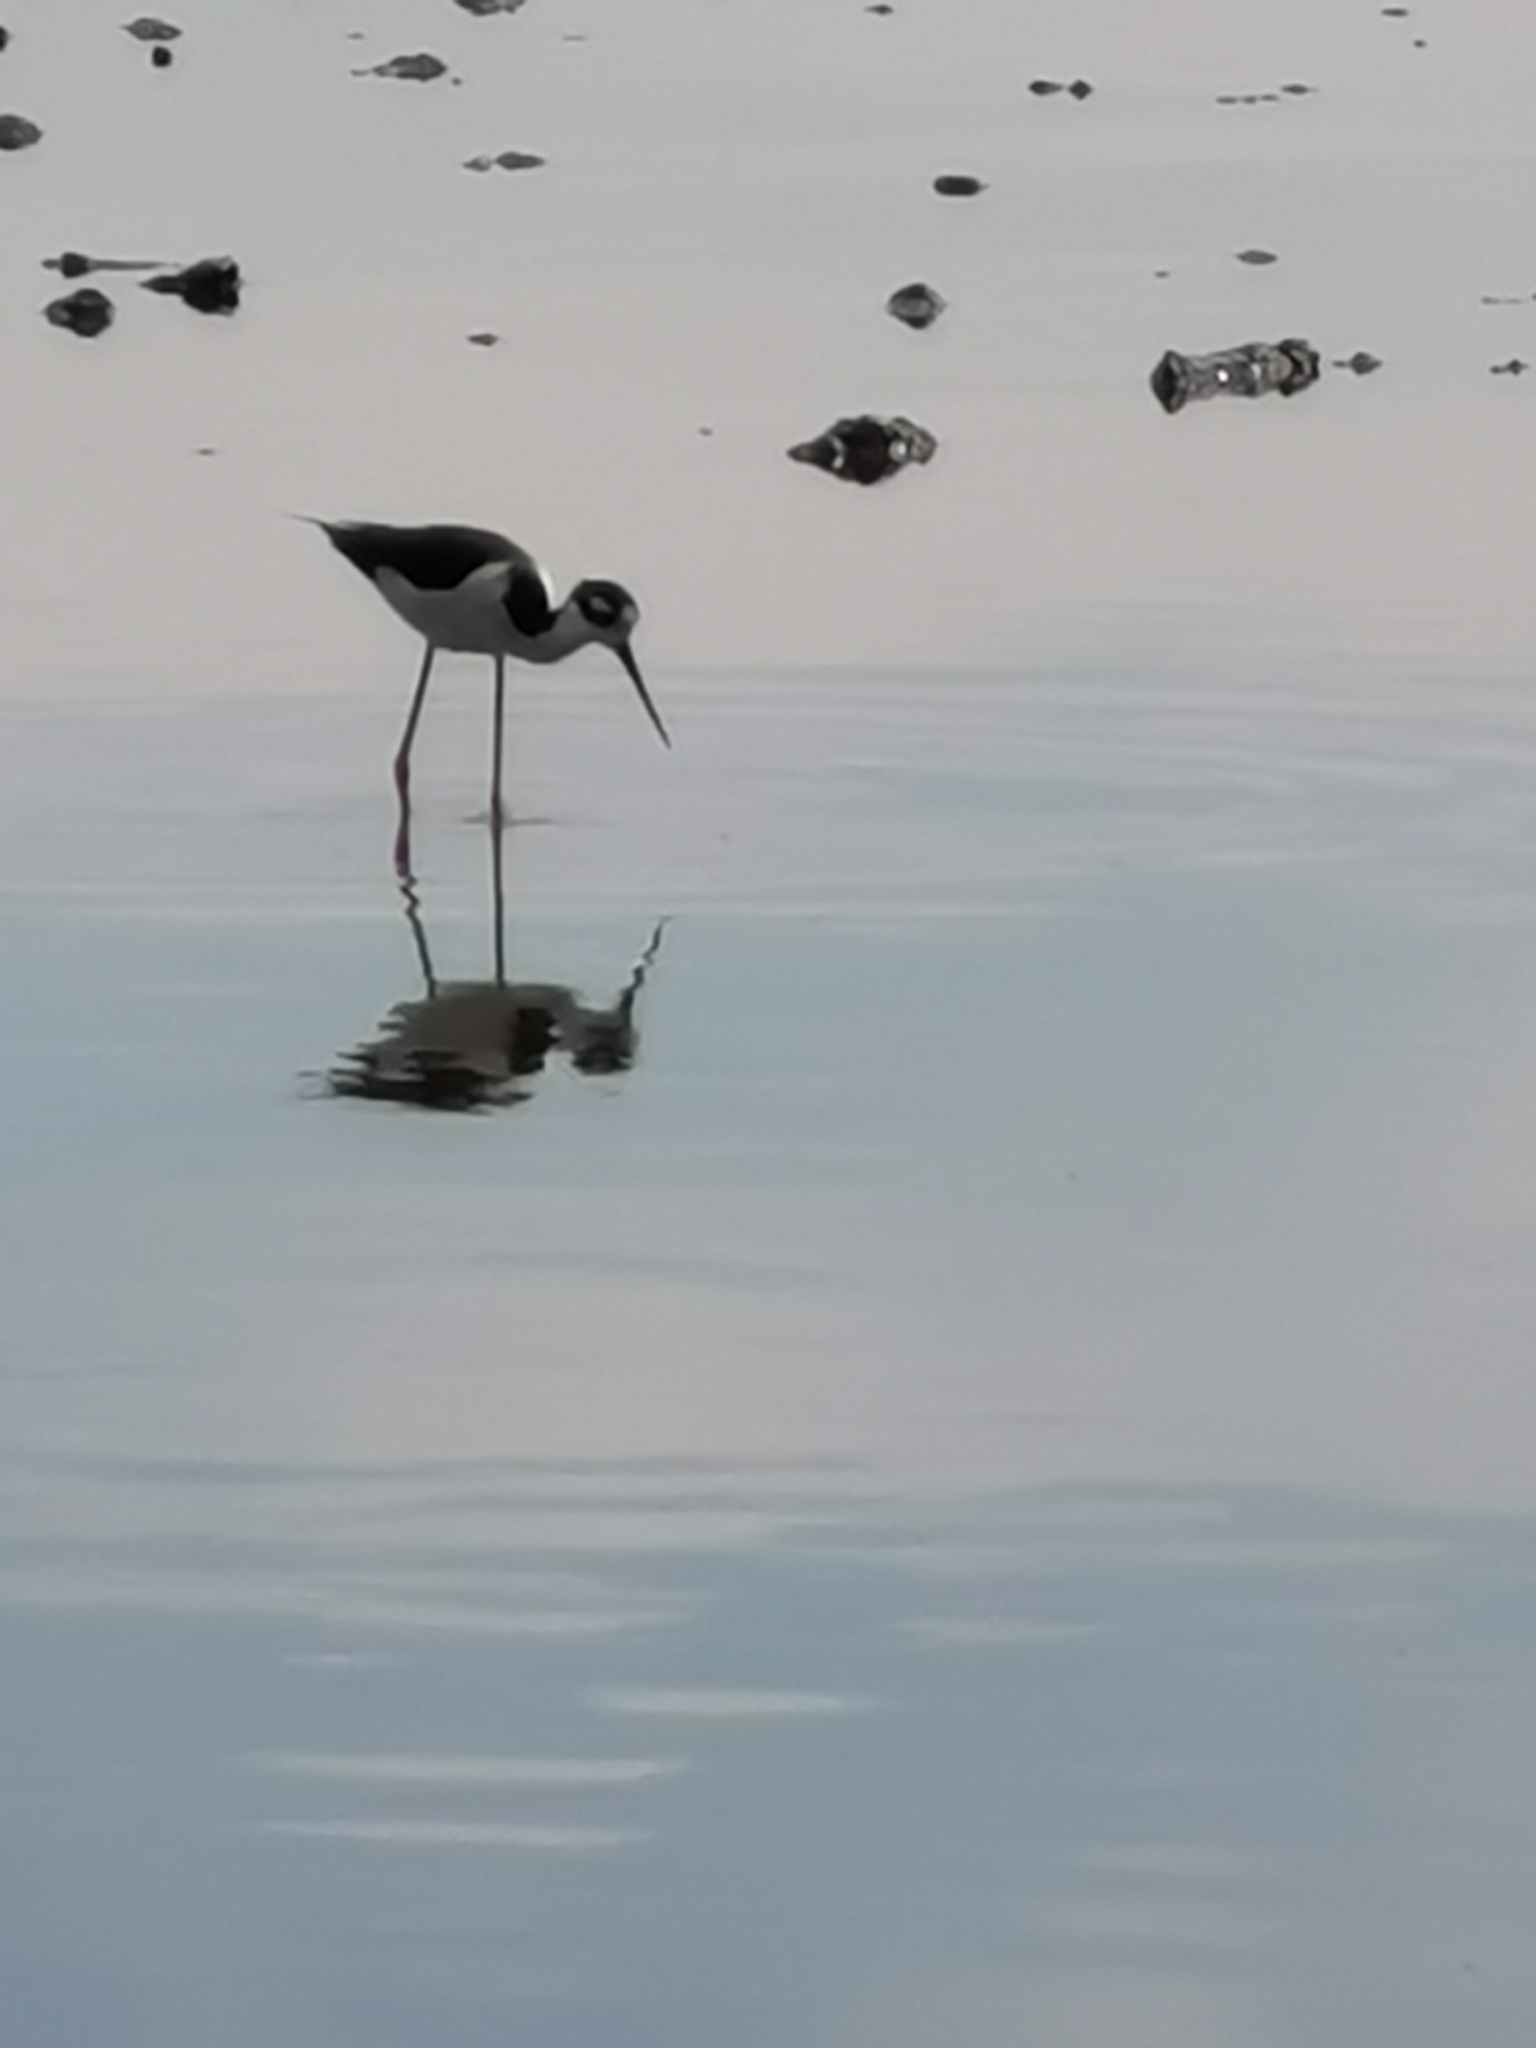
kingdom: Animalia
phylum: Chordata
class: Aves
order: Charadriiformes
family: Recurvirostridae
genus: Himantopus
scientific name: Himantopus mexicanus
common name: Black-necked stilt
